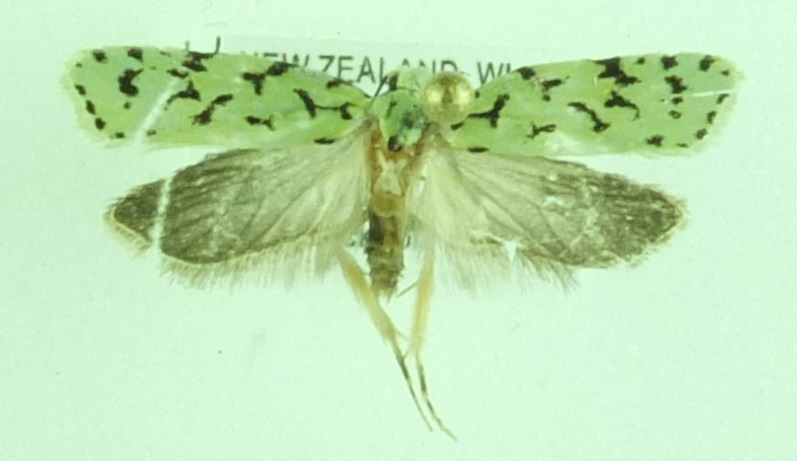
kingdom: Animalia
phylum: Arthropoda
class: Insecta
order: Lepidoptera
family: Oecophoridae
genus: Izatha
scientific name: Izatha peroneanella
